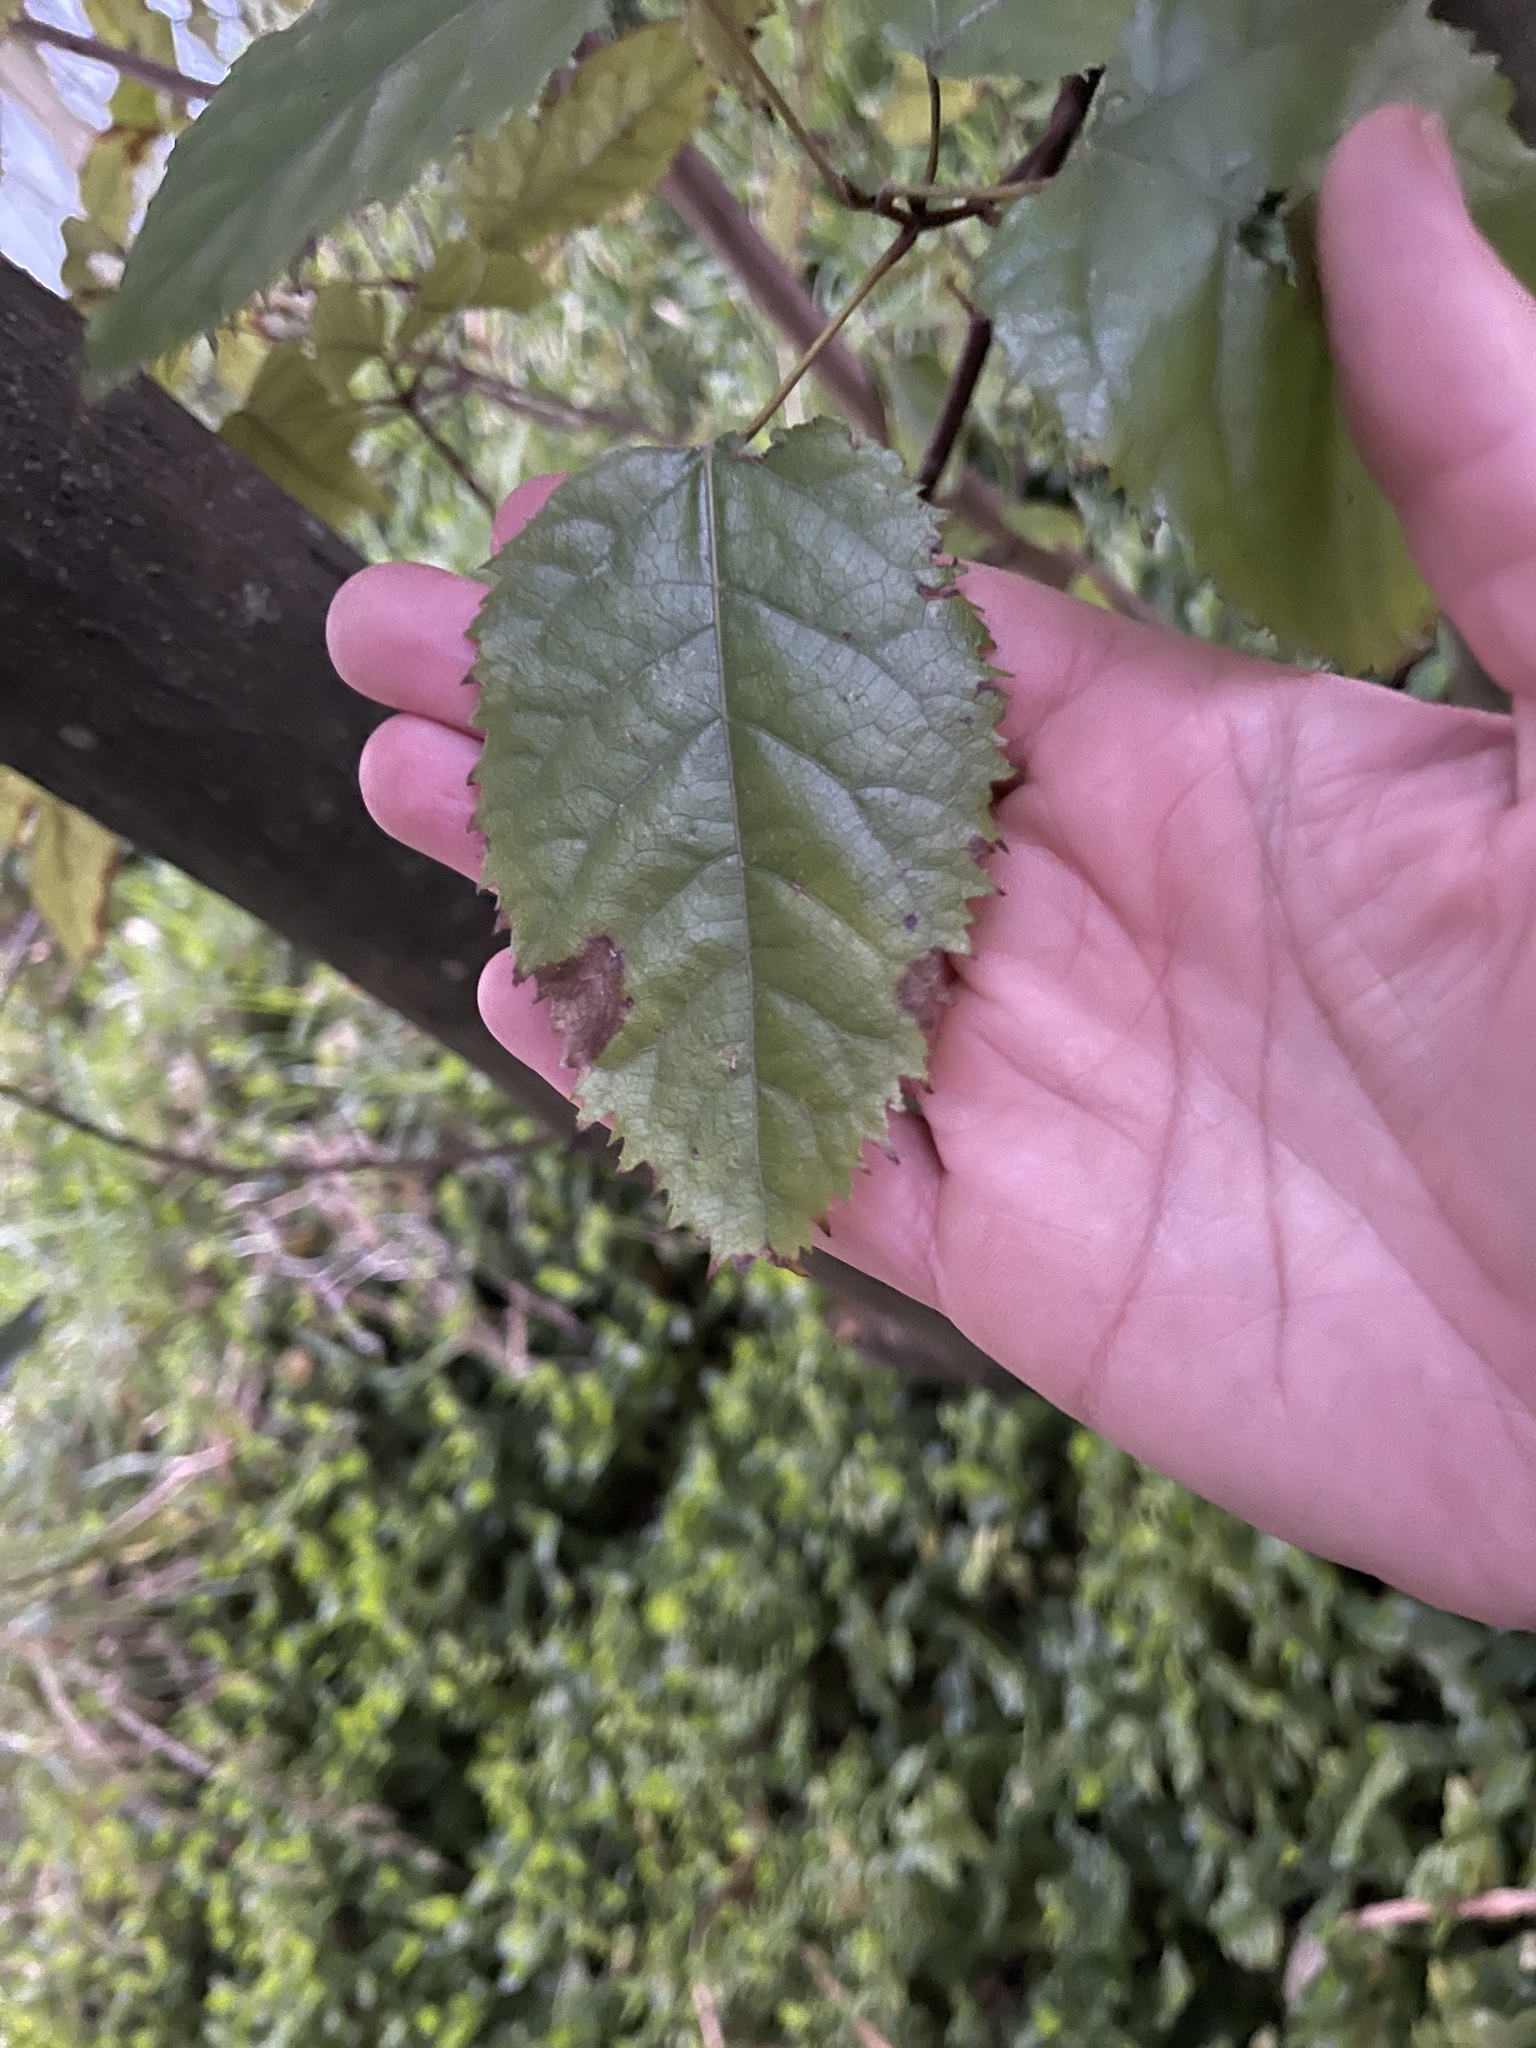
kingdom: Plantae
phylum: Tracheophyta
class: Magnoliopsida
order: Oxalidales
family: Elaeocarpaceae
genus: Aristotelia
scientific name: Aristotelia serrata
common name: New zealand wineberry
